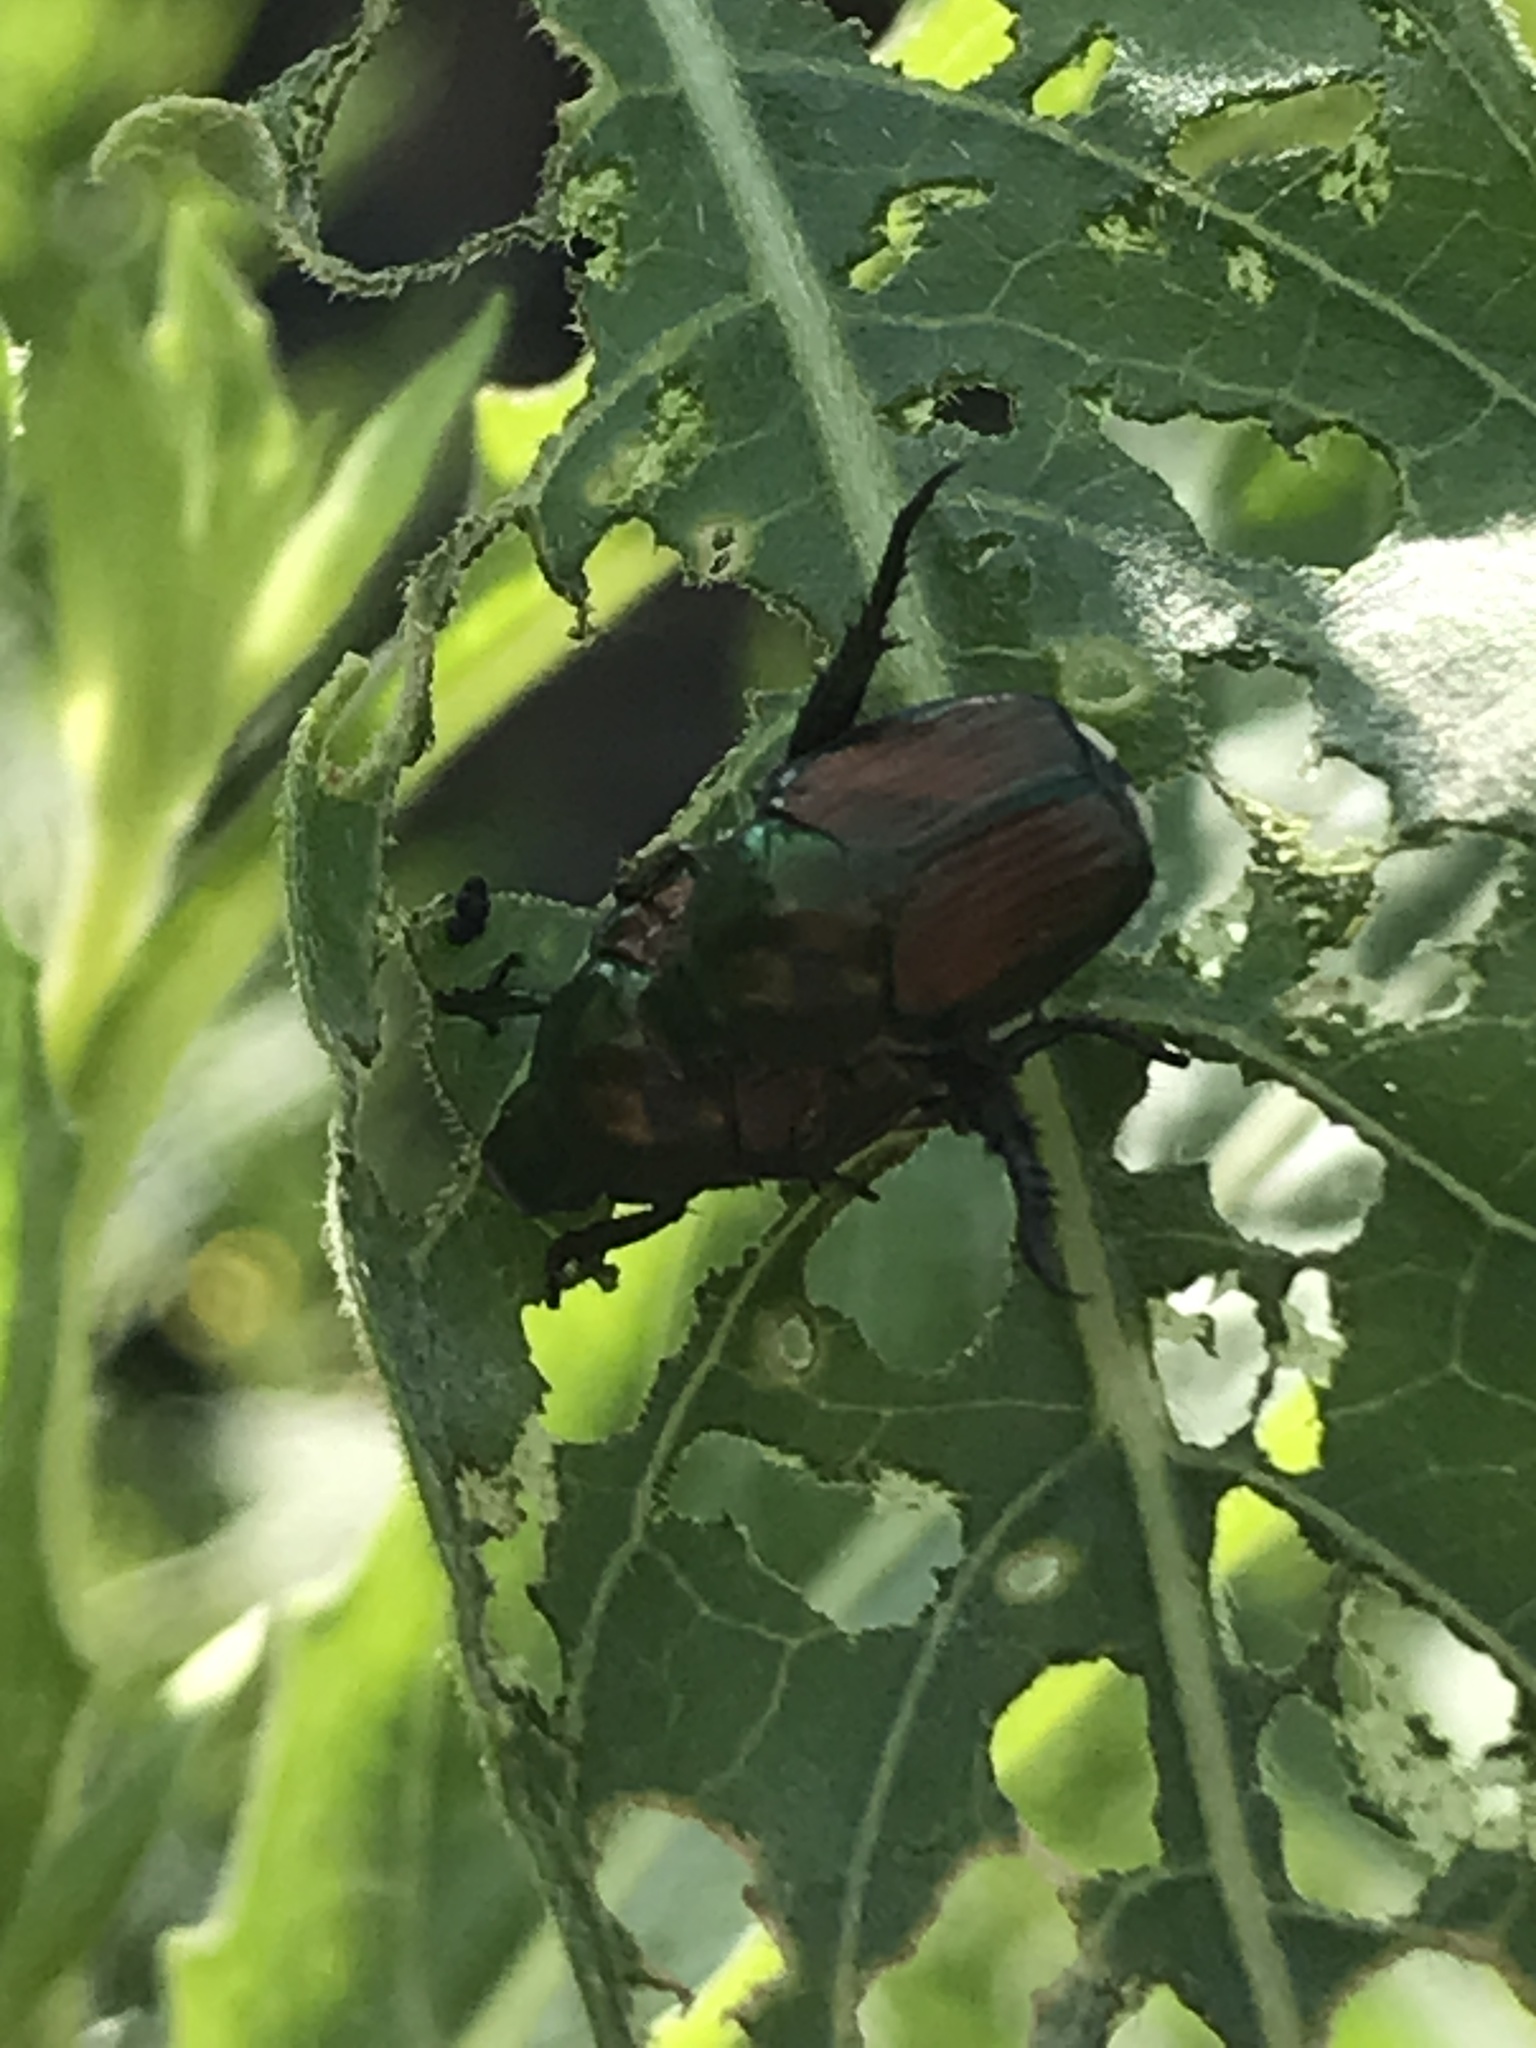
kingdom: Animalia
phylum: Arthropoda
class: Insecta
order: Coleoptera
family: Scarabaeidae
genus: Popillia
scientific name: Popillia japonica
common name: Japanese beetle
